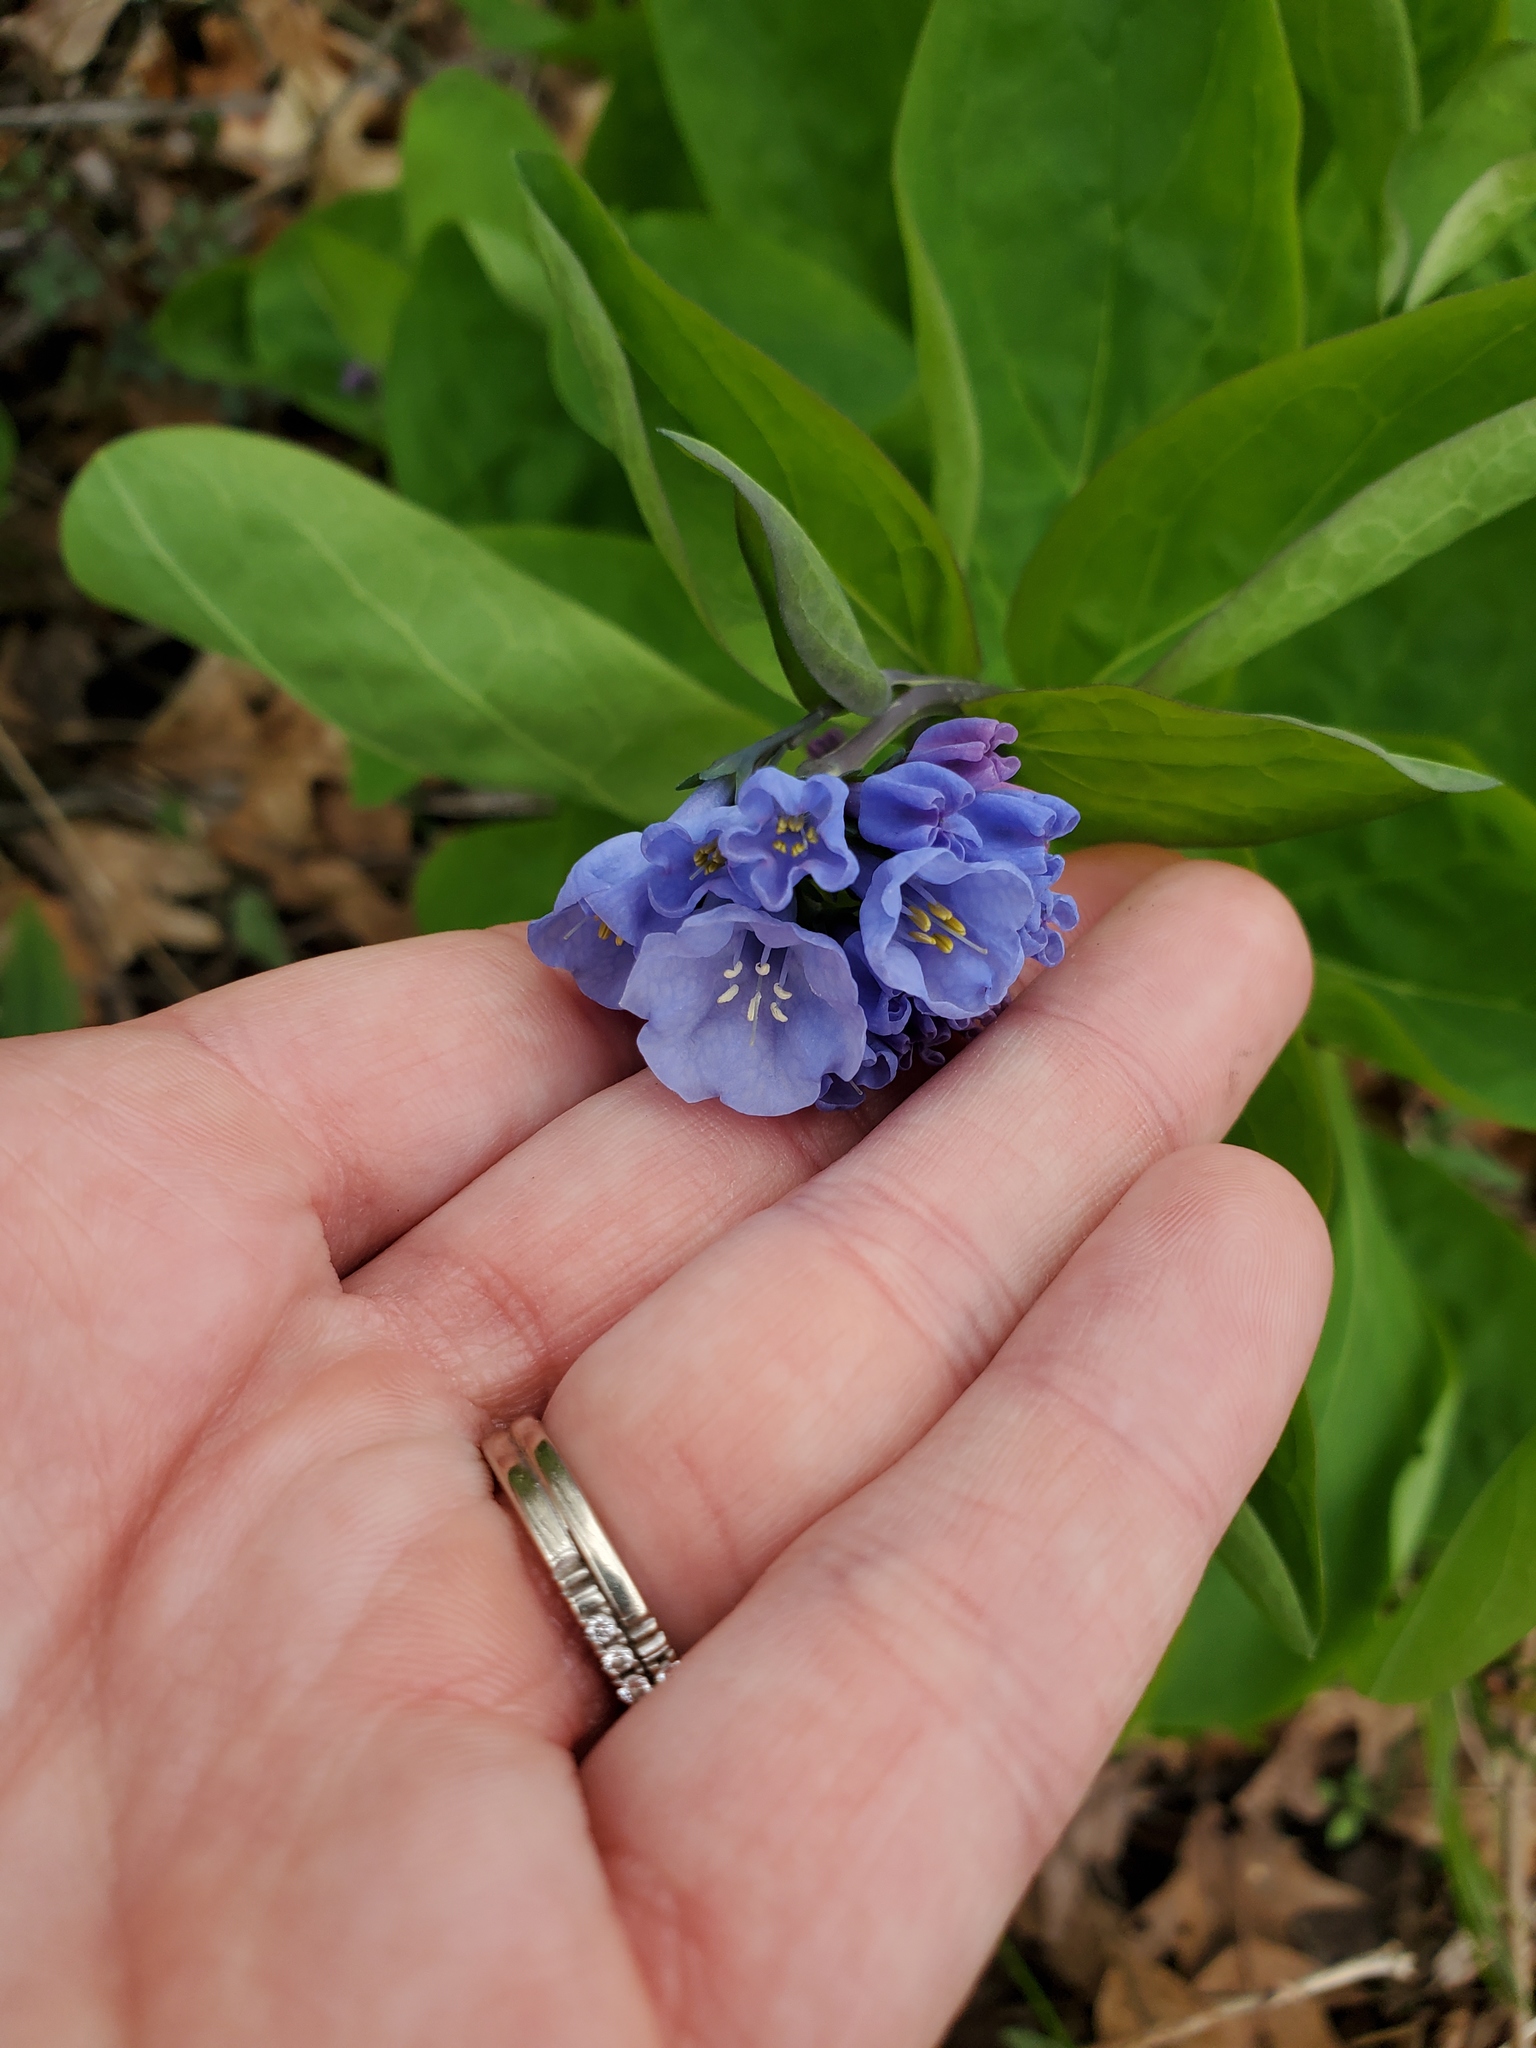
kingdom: Plantae
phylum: Tracheophyta
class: Magnoliopsida
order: Boraginales
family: Boraginaceae
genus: Mertensia
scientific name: Mertensia virginica
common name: Virginia bluebells
